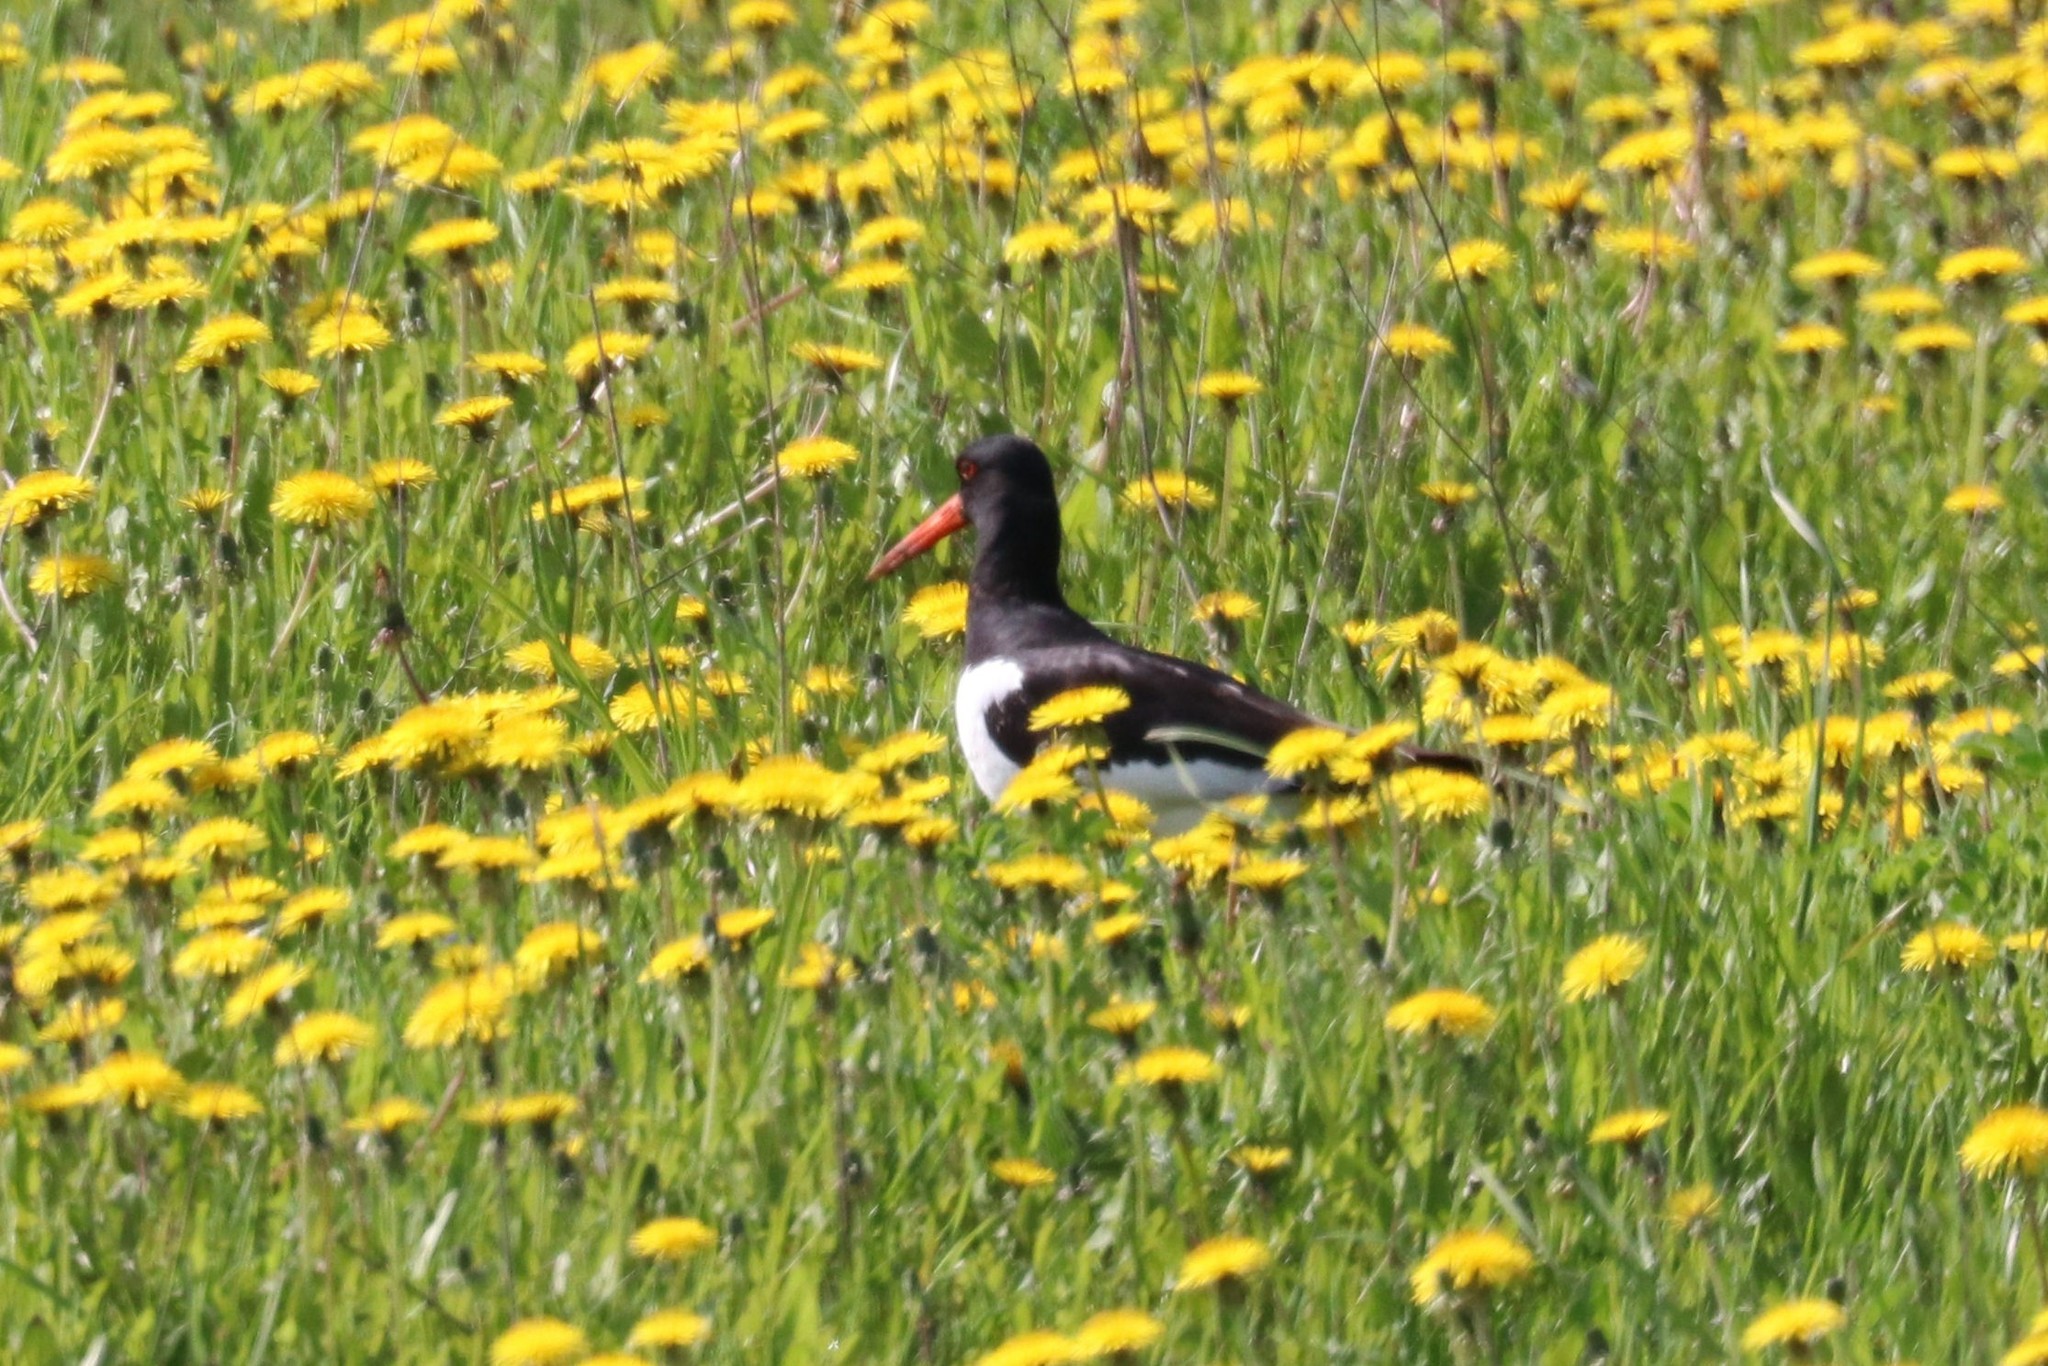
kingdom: Animalia
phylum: Chordata
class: Aves
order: Charadriiformes
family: Haematopodidae
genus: Haematopus
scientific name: Haematopus ostralegus
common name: Eurasian oystercatcher
